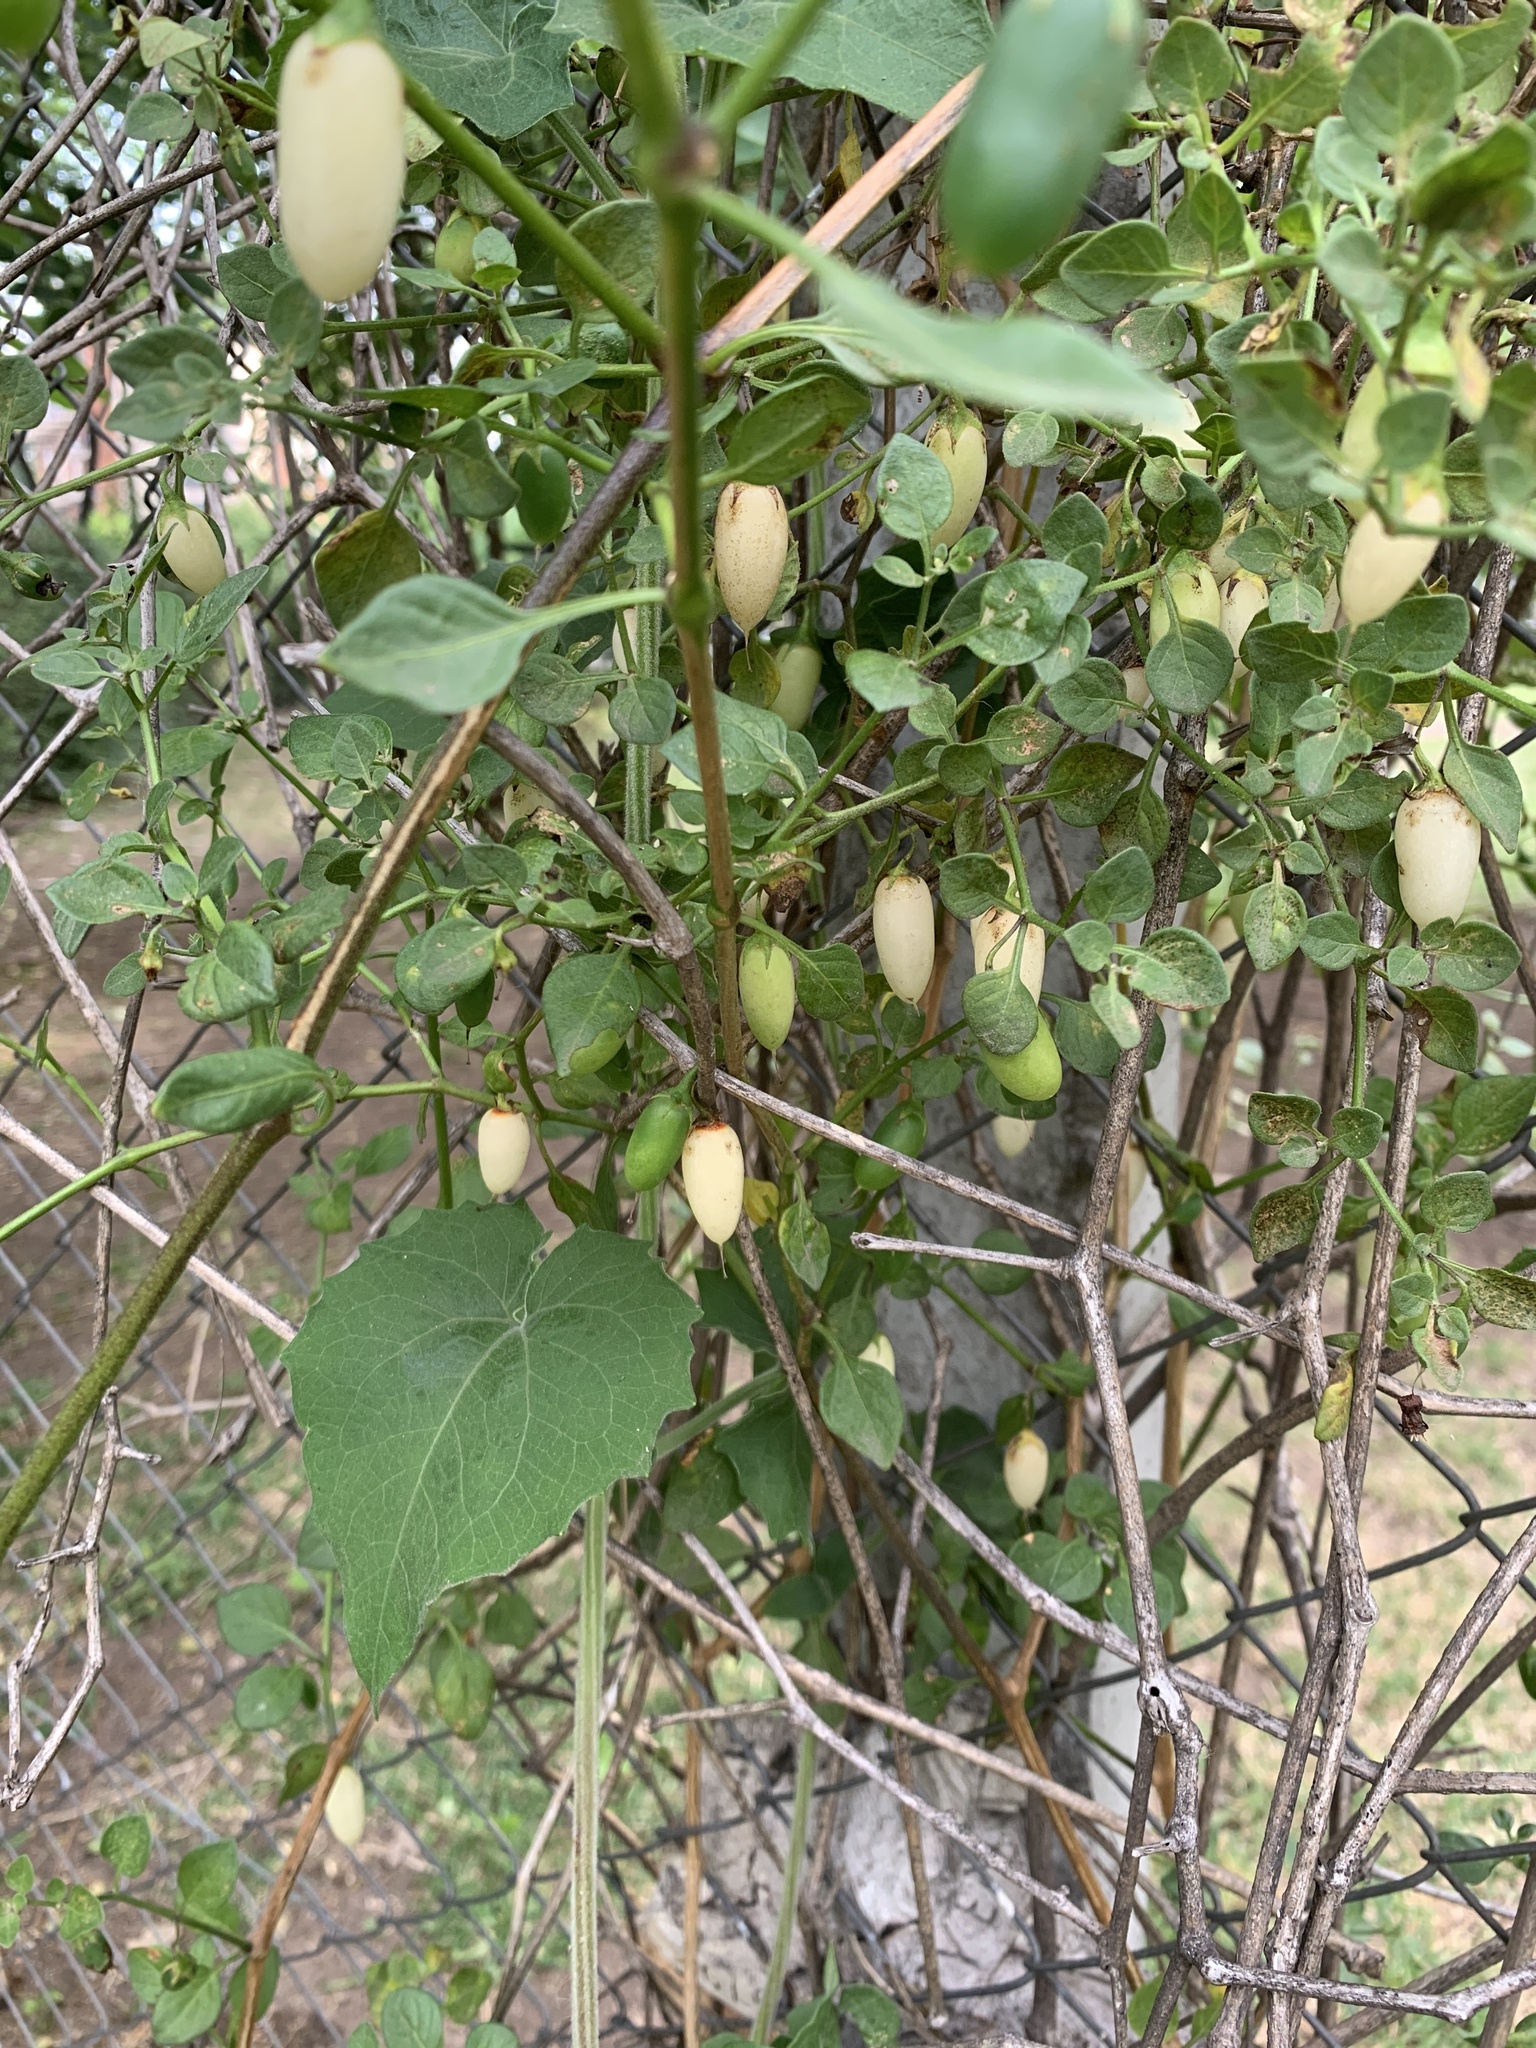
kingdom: Plantae
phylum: Tracheophyta
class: Magnoliopsida
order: Solanales
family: Solanaceae
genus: Salpichroa
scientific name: Salpichroa origanifolia
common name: Lily-of-the-valley-vine
